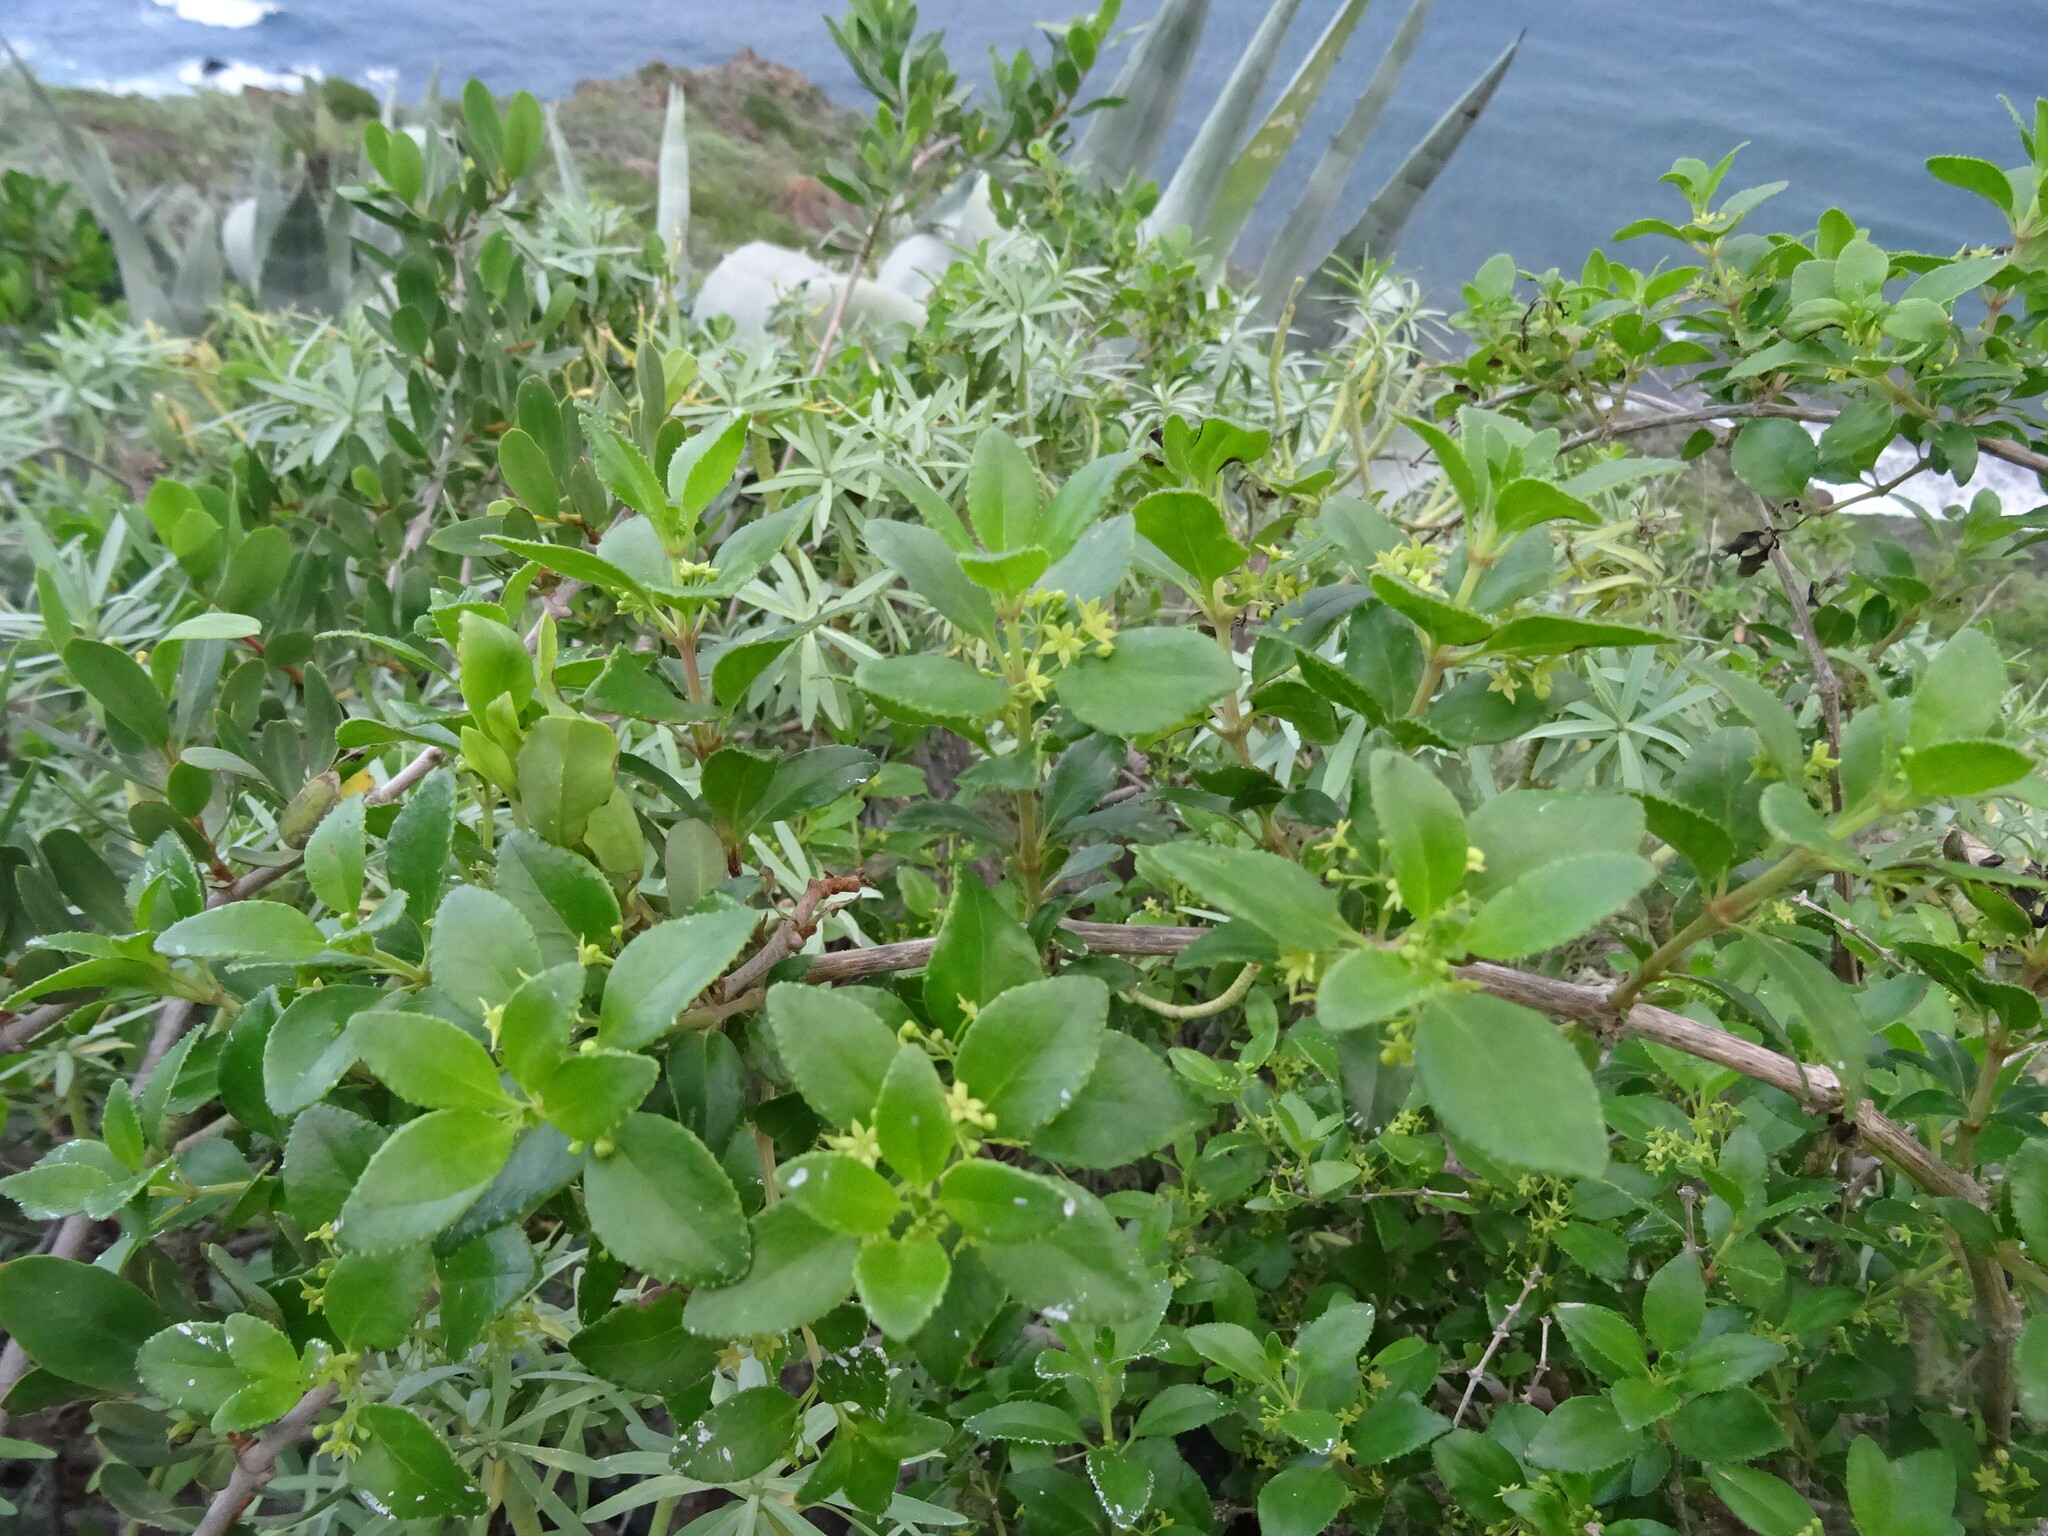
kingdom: Plantae
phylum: Tracheophyta
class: Magnoliopsida
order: Gentianales
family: Rubiaceae
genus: Rubia
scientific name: Rubia fruticosa
